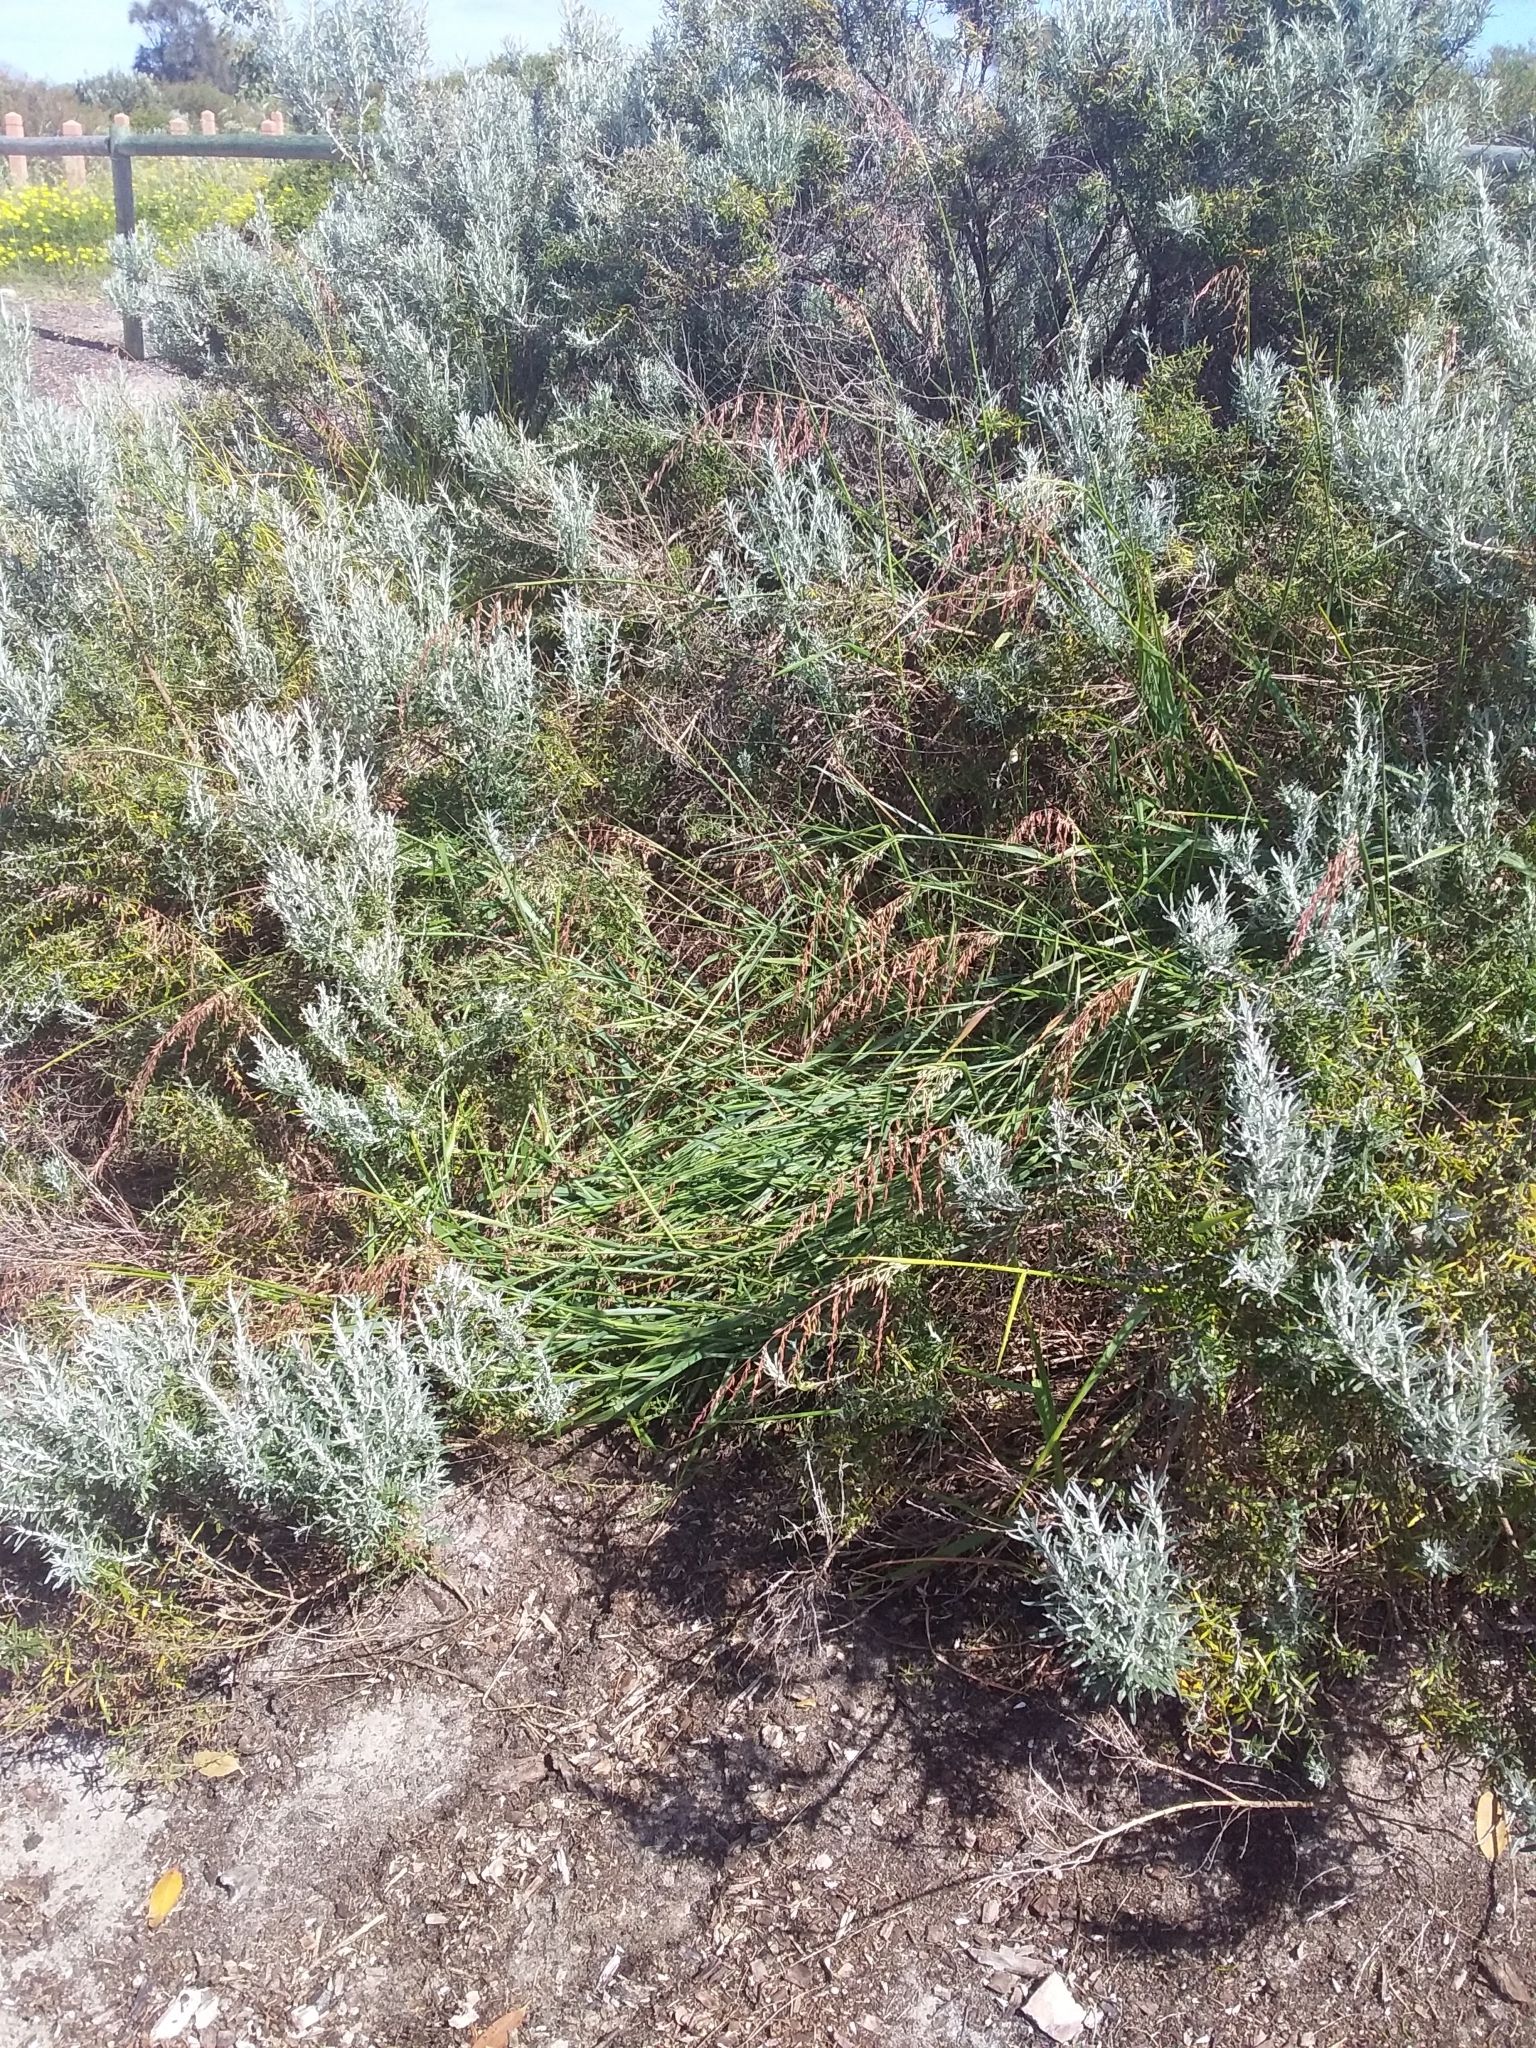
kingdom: Plantae
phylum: Tracheophyta
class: Magnoliopsida
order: Asterales
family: Asteraceae
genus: Olearia
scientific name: Olearia axillaris
